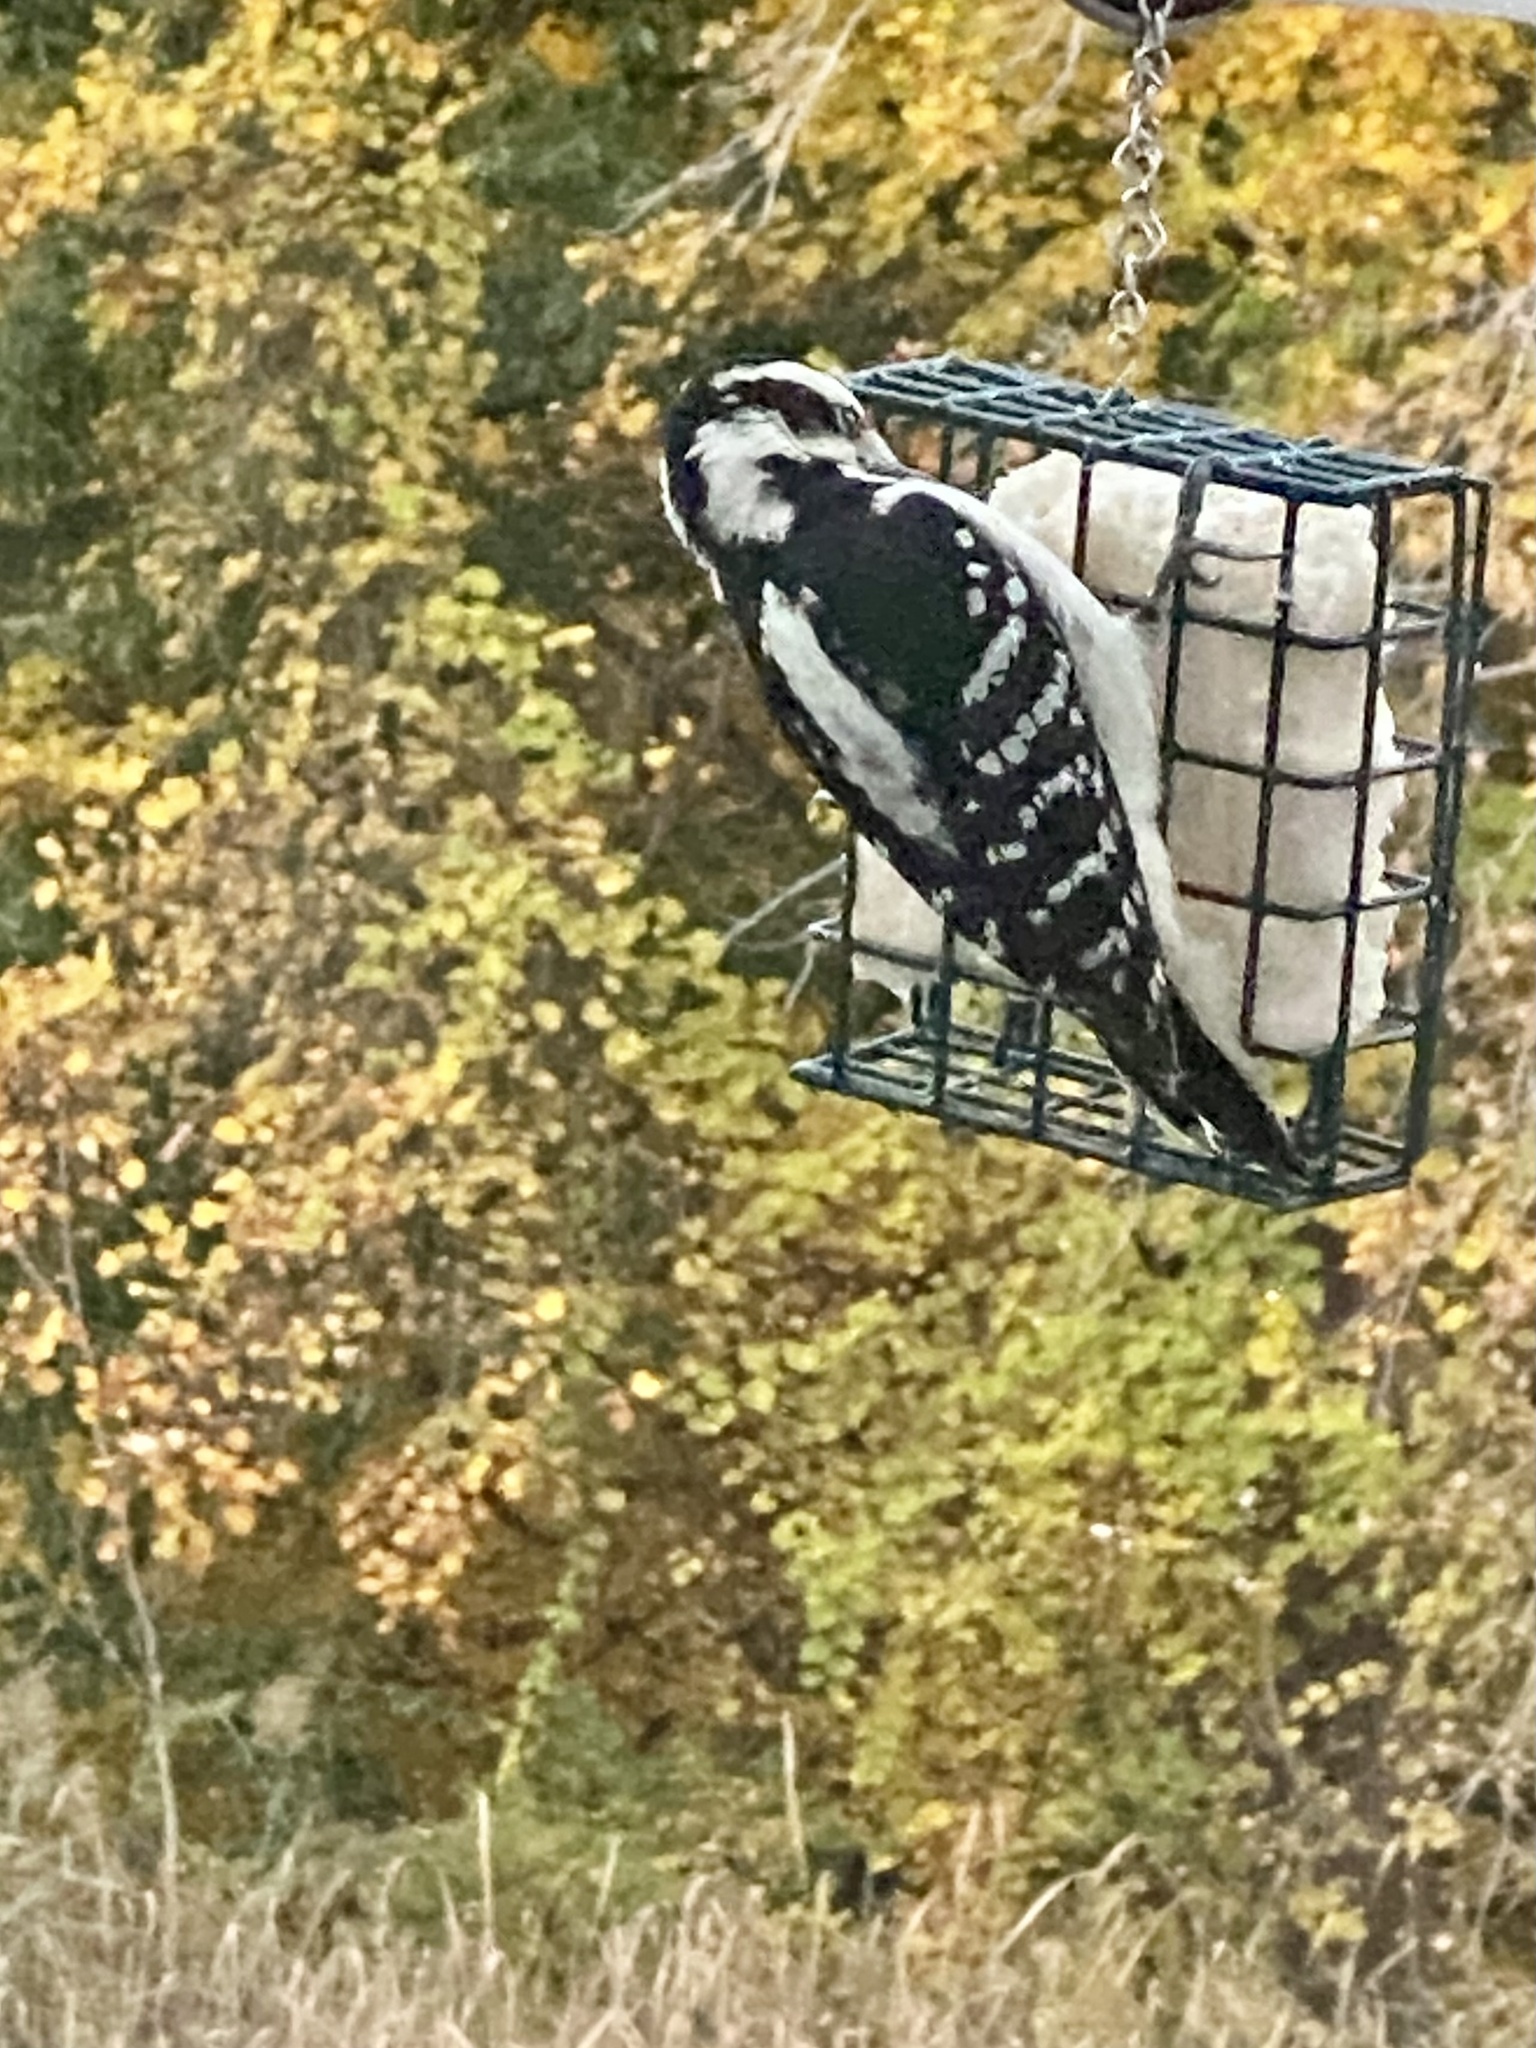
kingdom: Animalia
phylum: Chordata
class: Aves
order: Piciformes
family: Picidae
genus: Leuconotopicus
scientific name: Leuconotopicus villosus
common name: Hairy woodpecker
